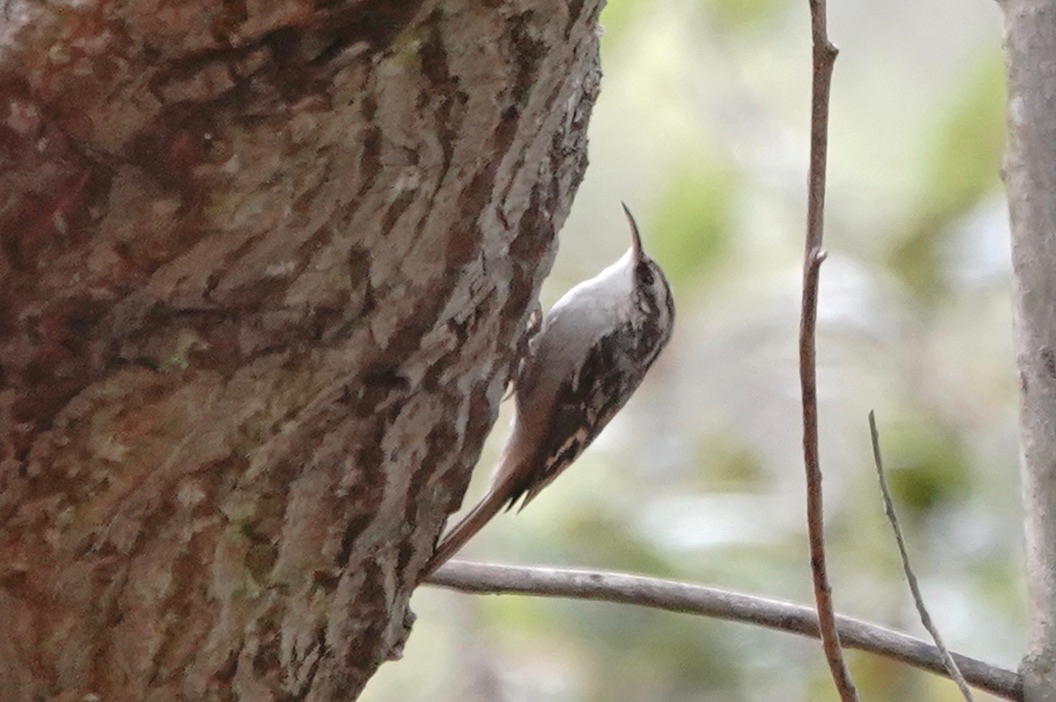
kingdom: Animalia
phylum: Chordata
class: Aves
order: Passeriformes
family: Certhiidae
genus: Certhia
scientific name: Certhia americana
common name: Brown creeper
